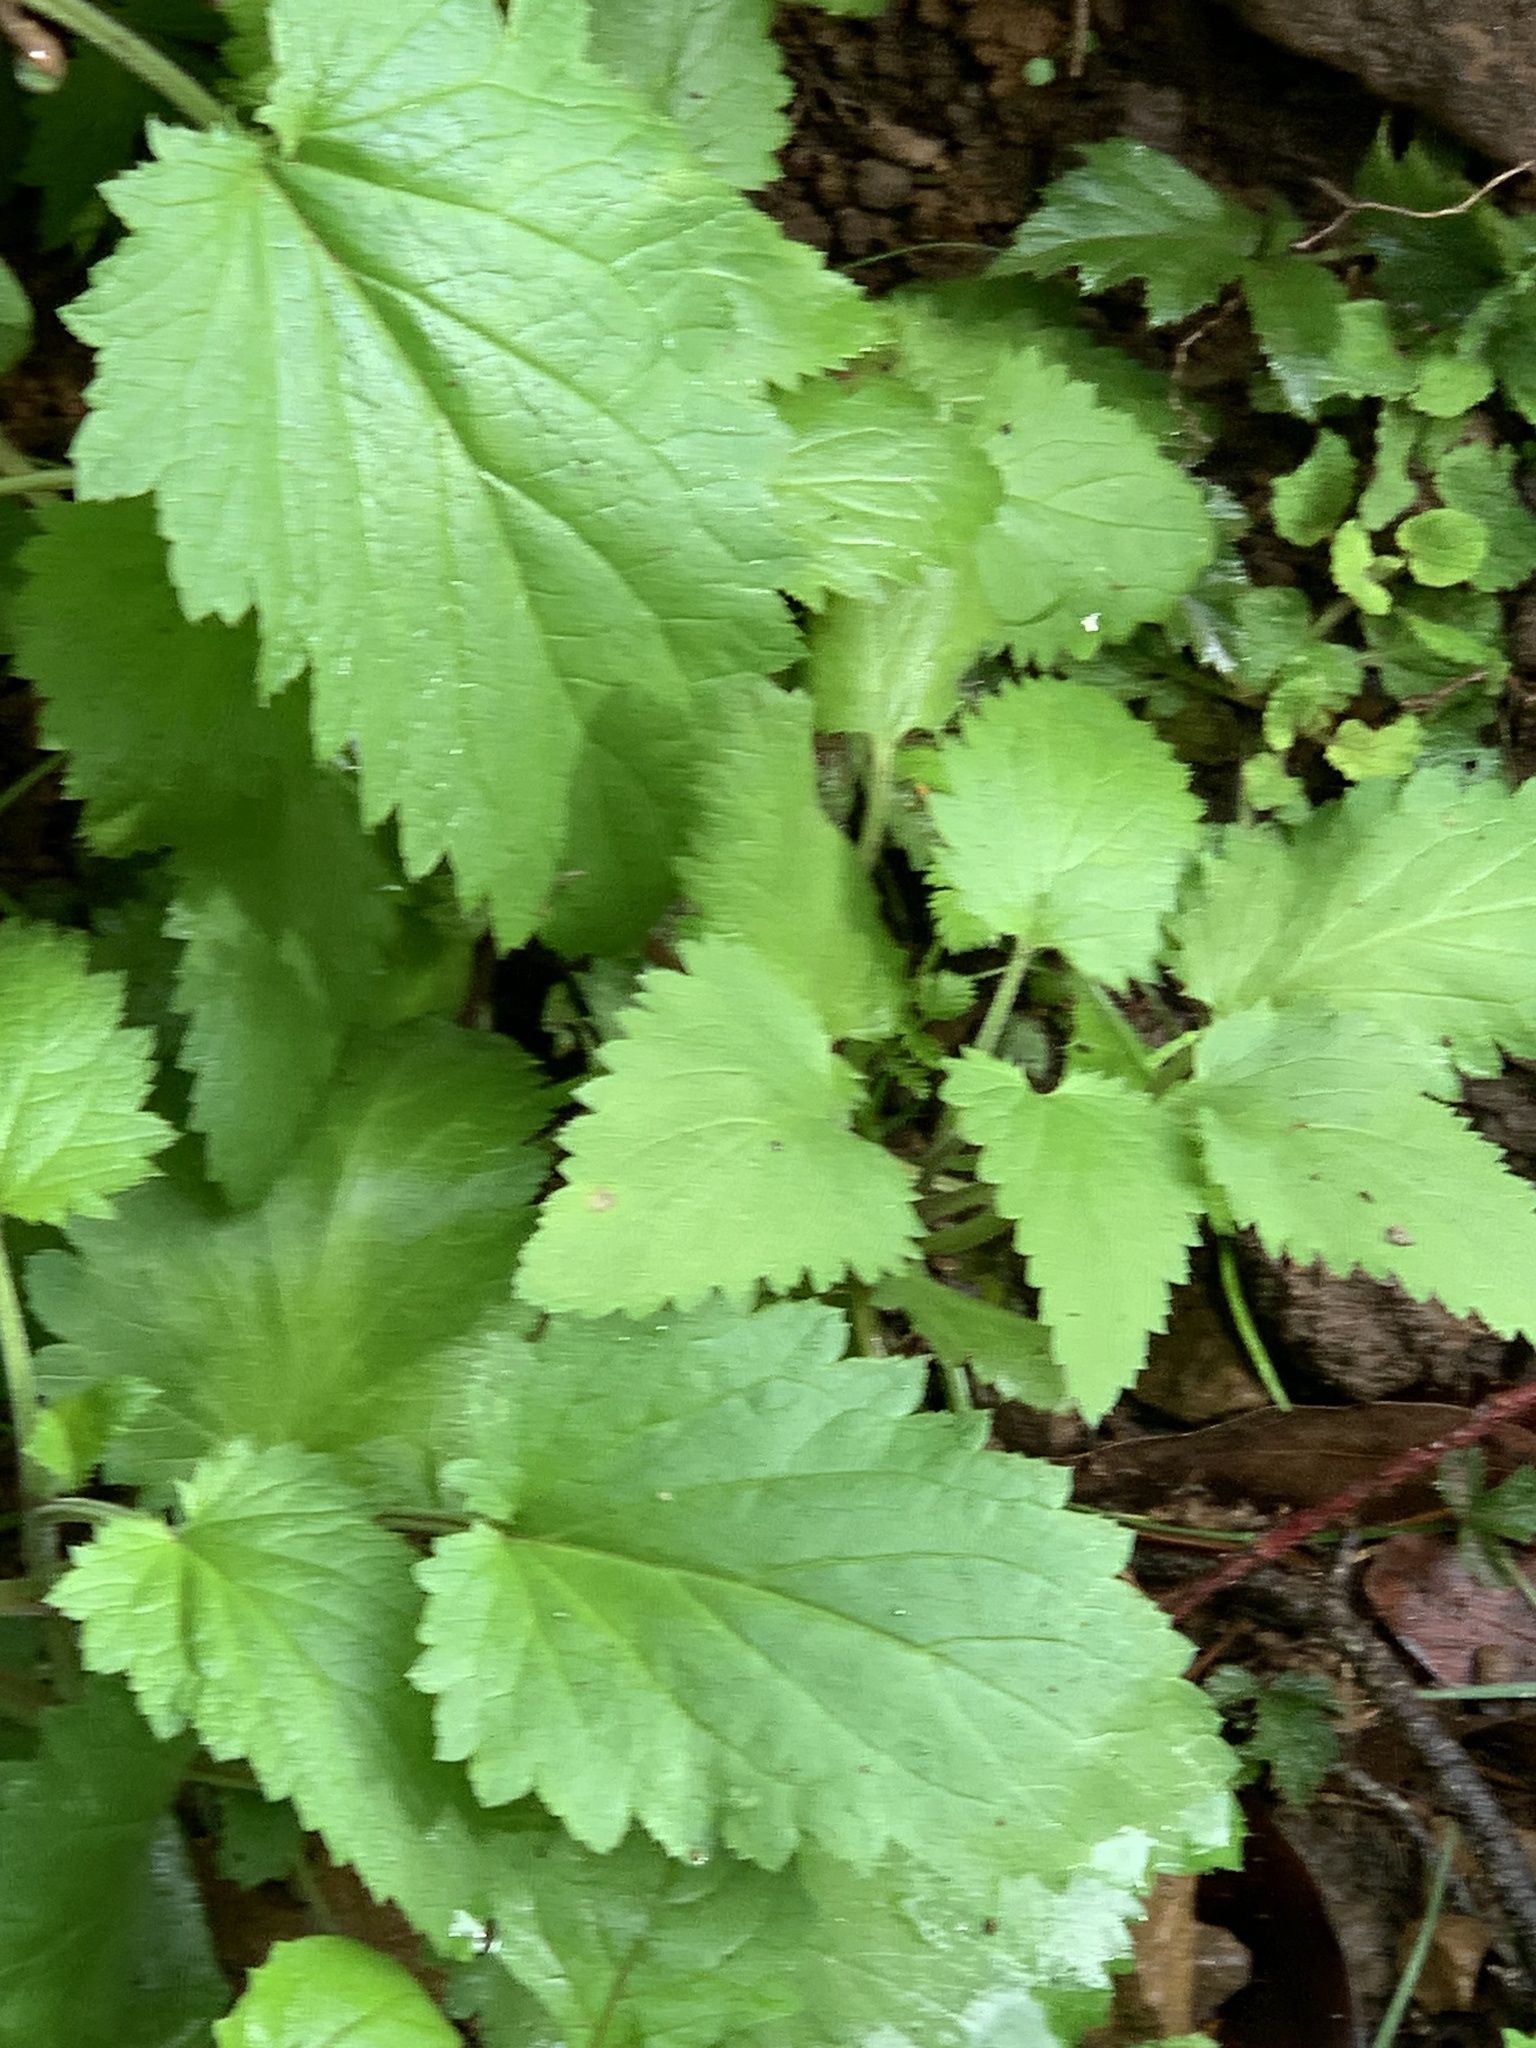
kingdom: Plantae
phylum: Tracheophyta
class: Magnoliopsida
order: Lamiales
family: Scrophulariaceae
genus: Scrophularia
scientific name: Scrophularia californica
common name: California figwort
